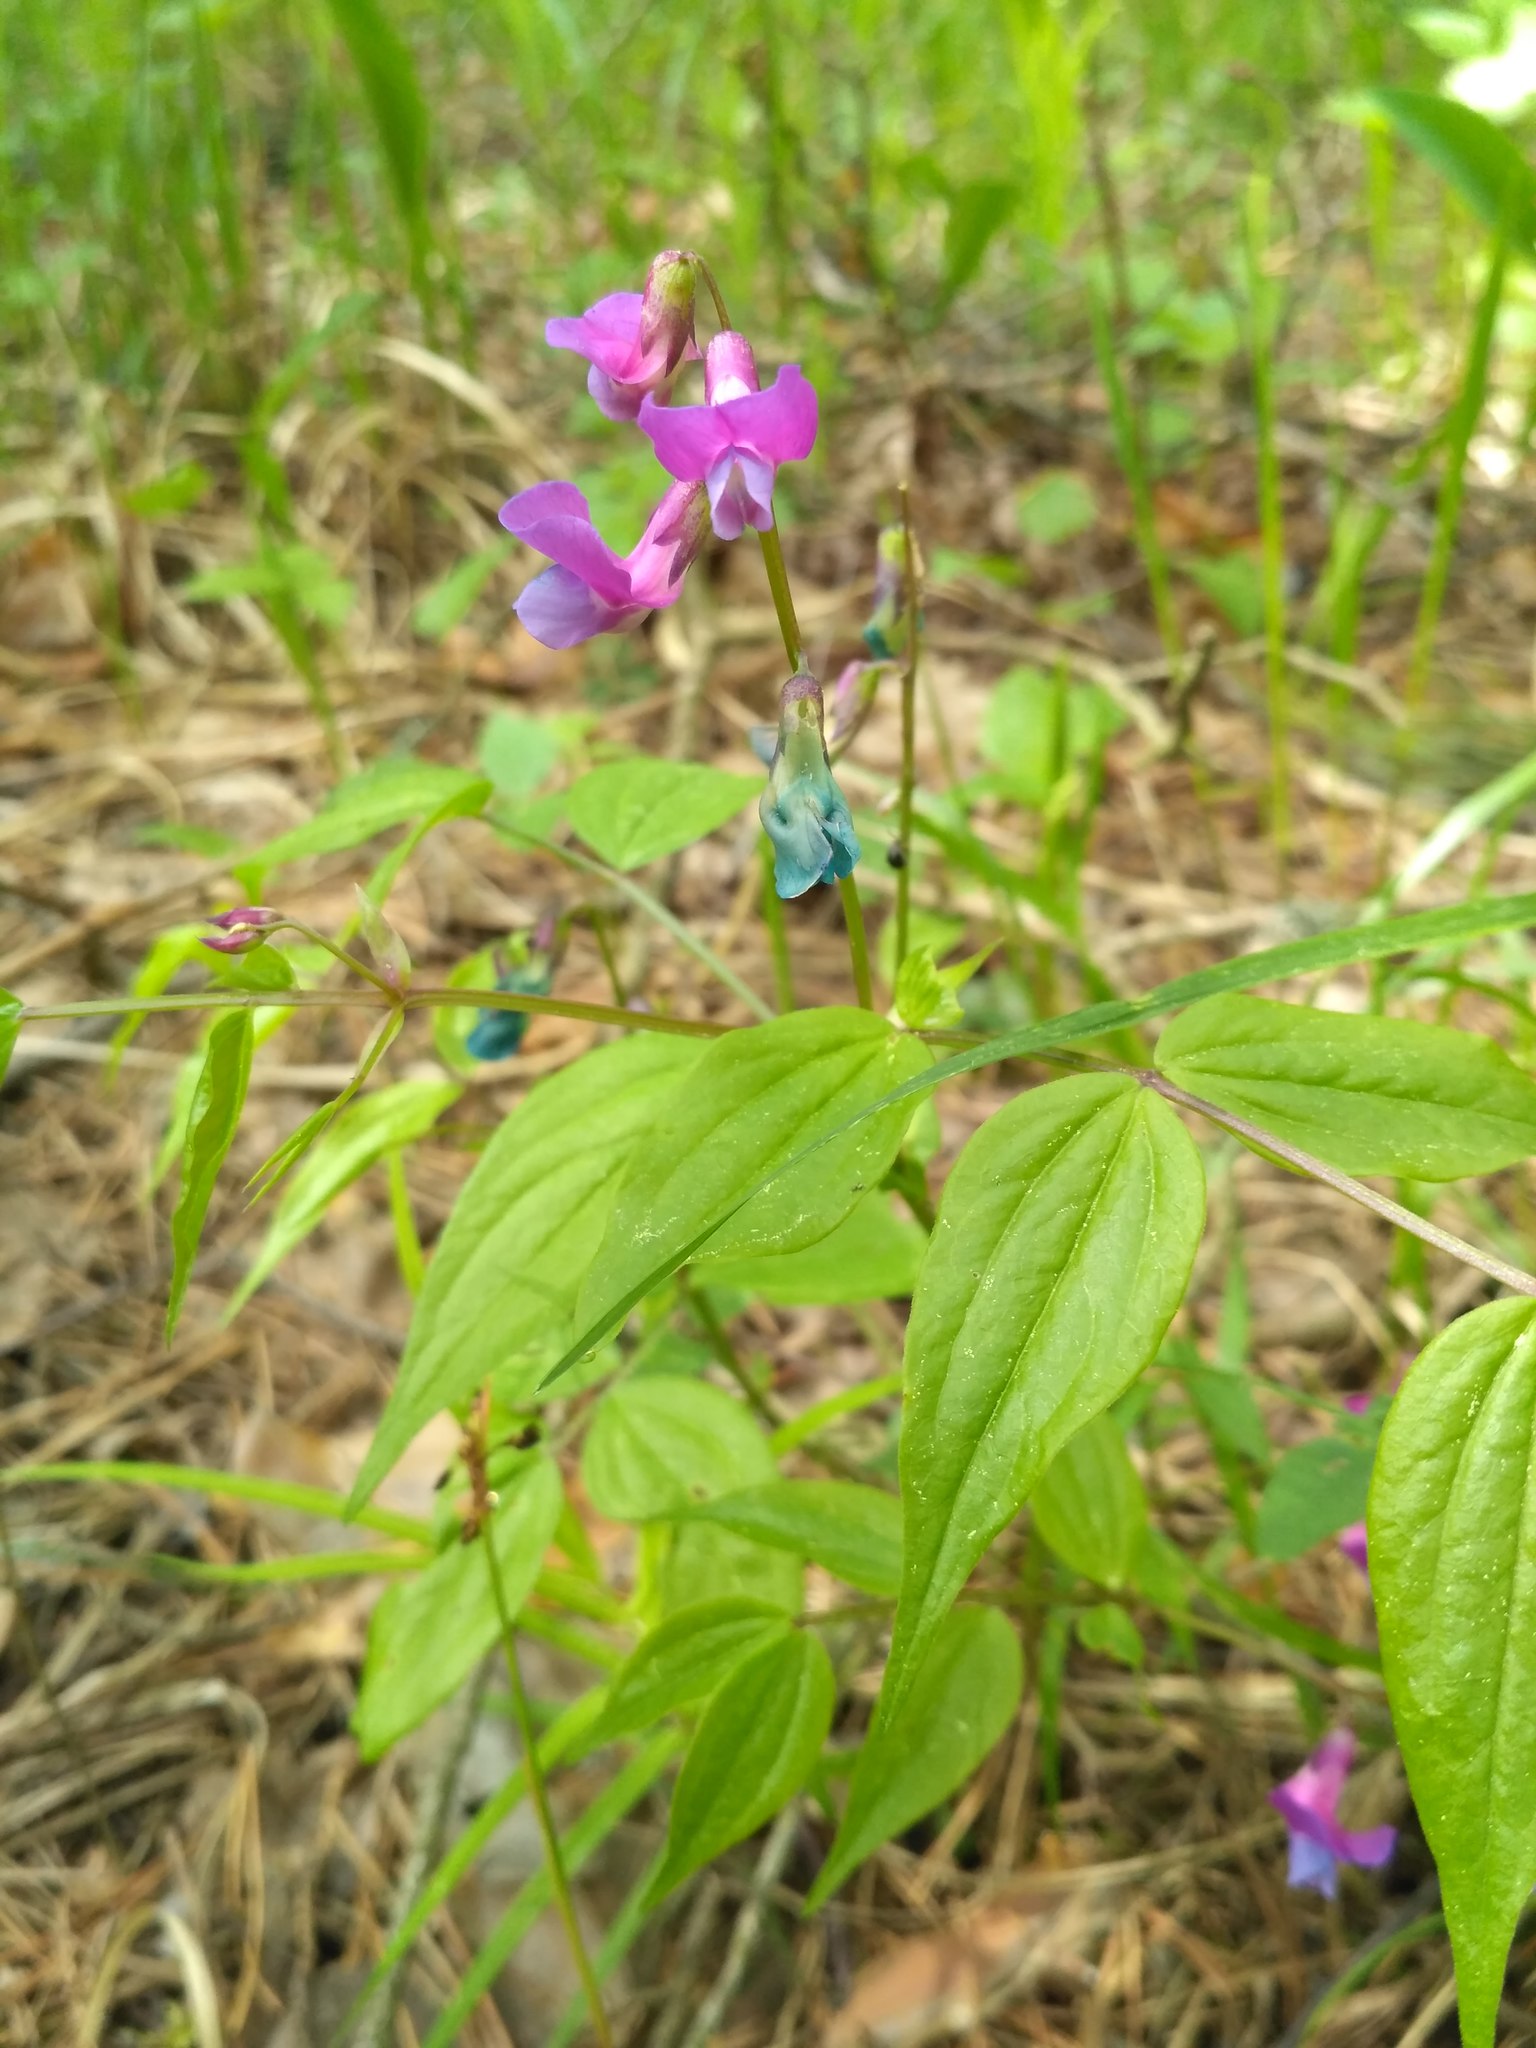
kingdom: Plantae
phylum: Tracheophyta
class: Magnoliopsida
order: Fabales
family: Fabaceae
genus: Lathyrus
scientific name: Lathyrus vernus
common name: Spring pea
